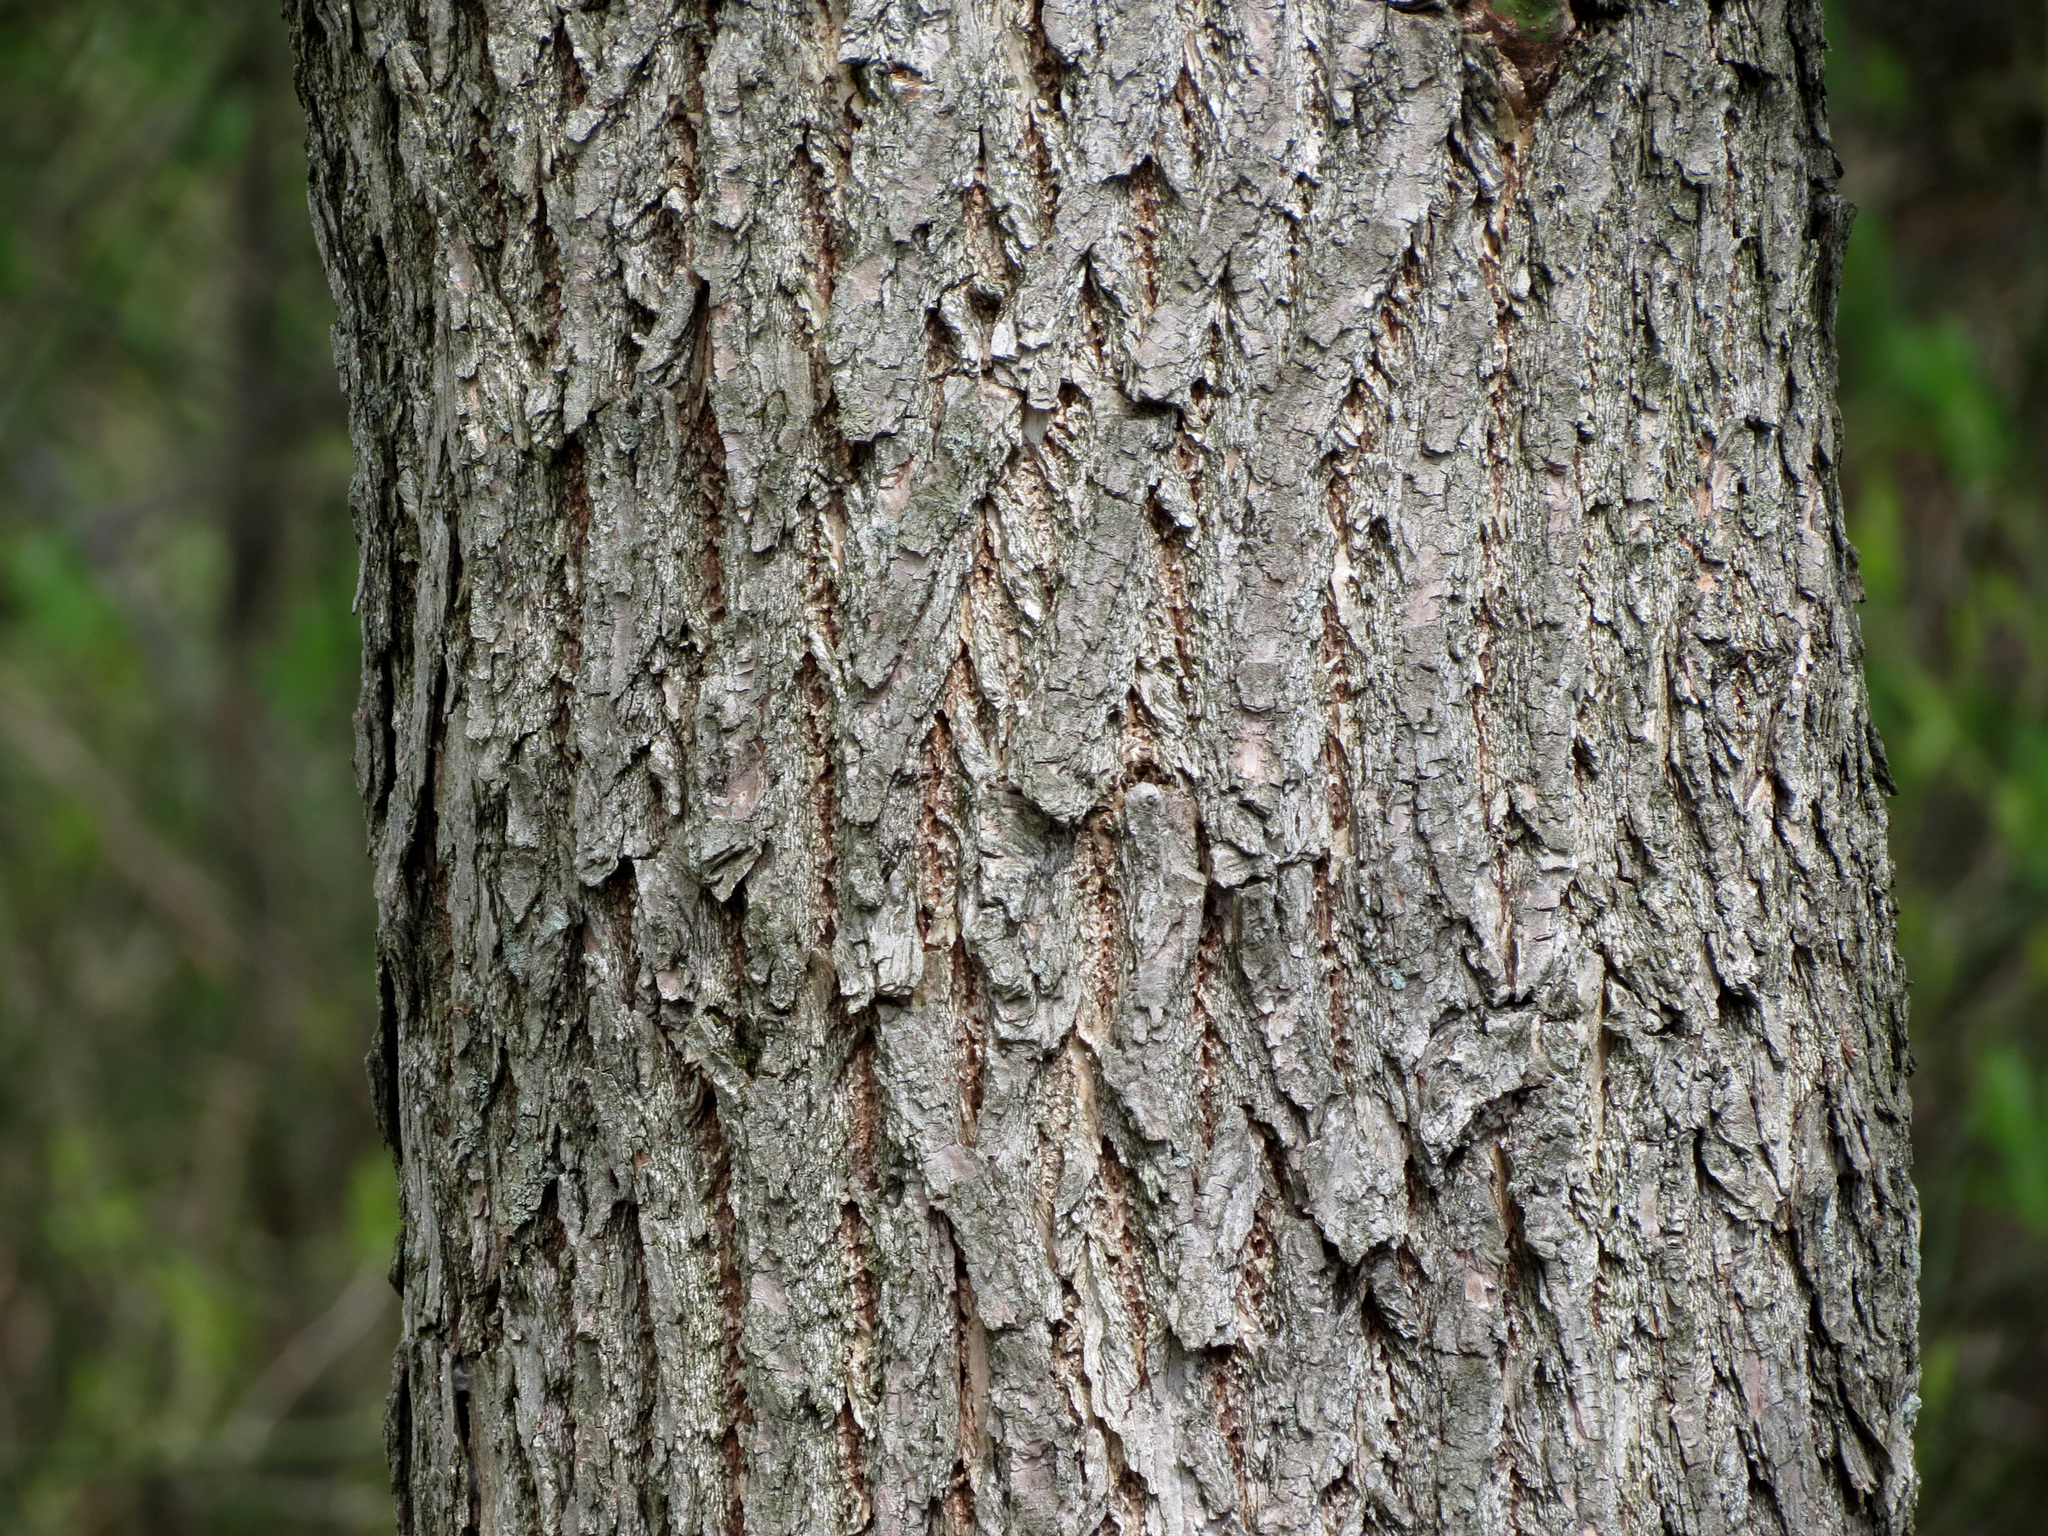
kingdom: Plantae
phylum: Tracheophyta
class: Magnoliopsida
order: Laurales
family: Lauraceae
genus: Sassafras
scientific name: Sassafras albidum
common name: Sassafras
